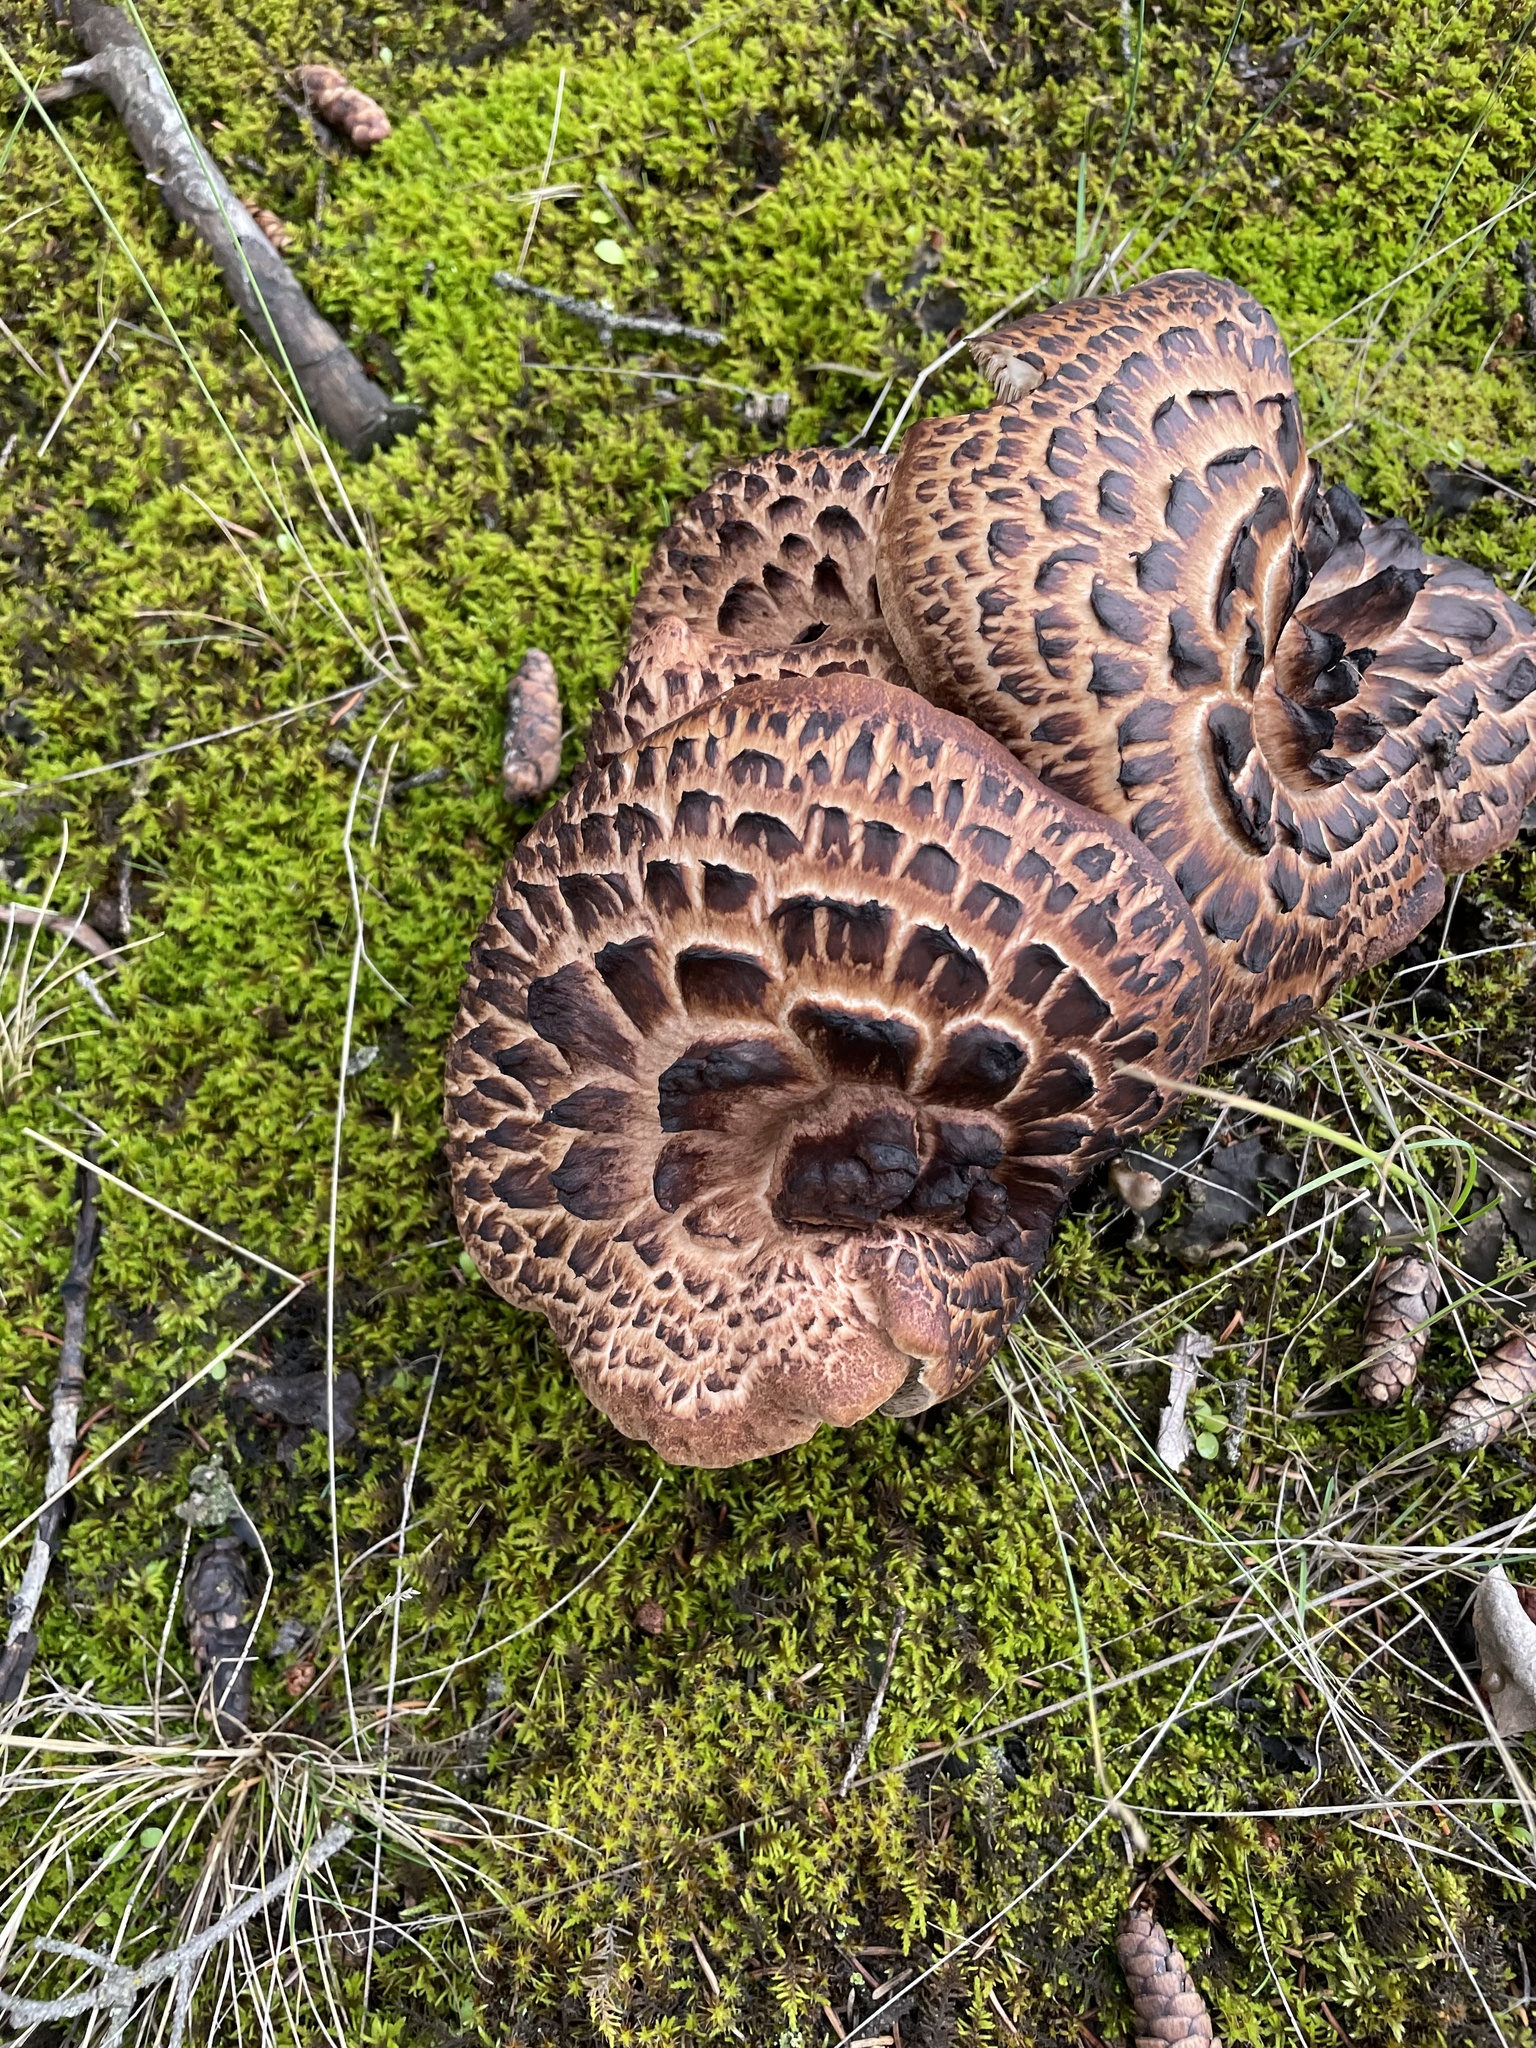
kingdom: Fungi
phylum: Basidiomycota
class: Agaricomycetes
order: Thelephorales
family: Bankeraceae
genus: Sarcodon
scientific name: Sarcodon imbricatus
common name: Shingled hedgehog
